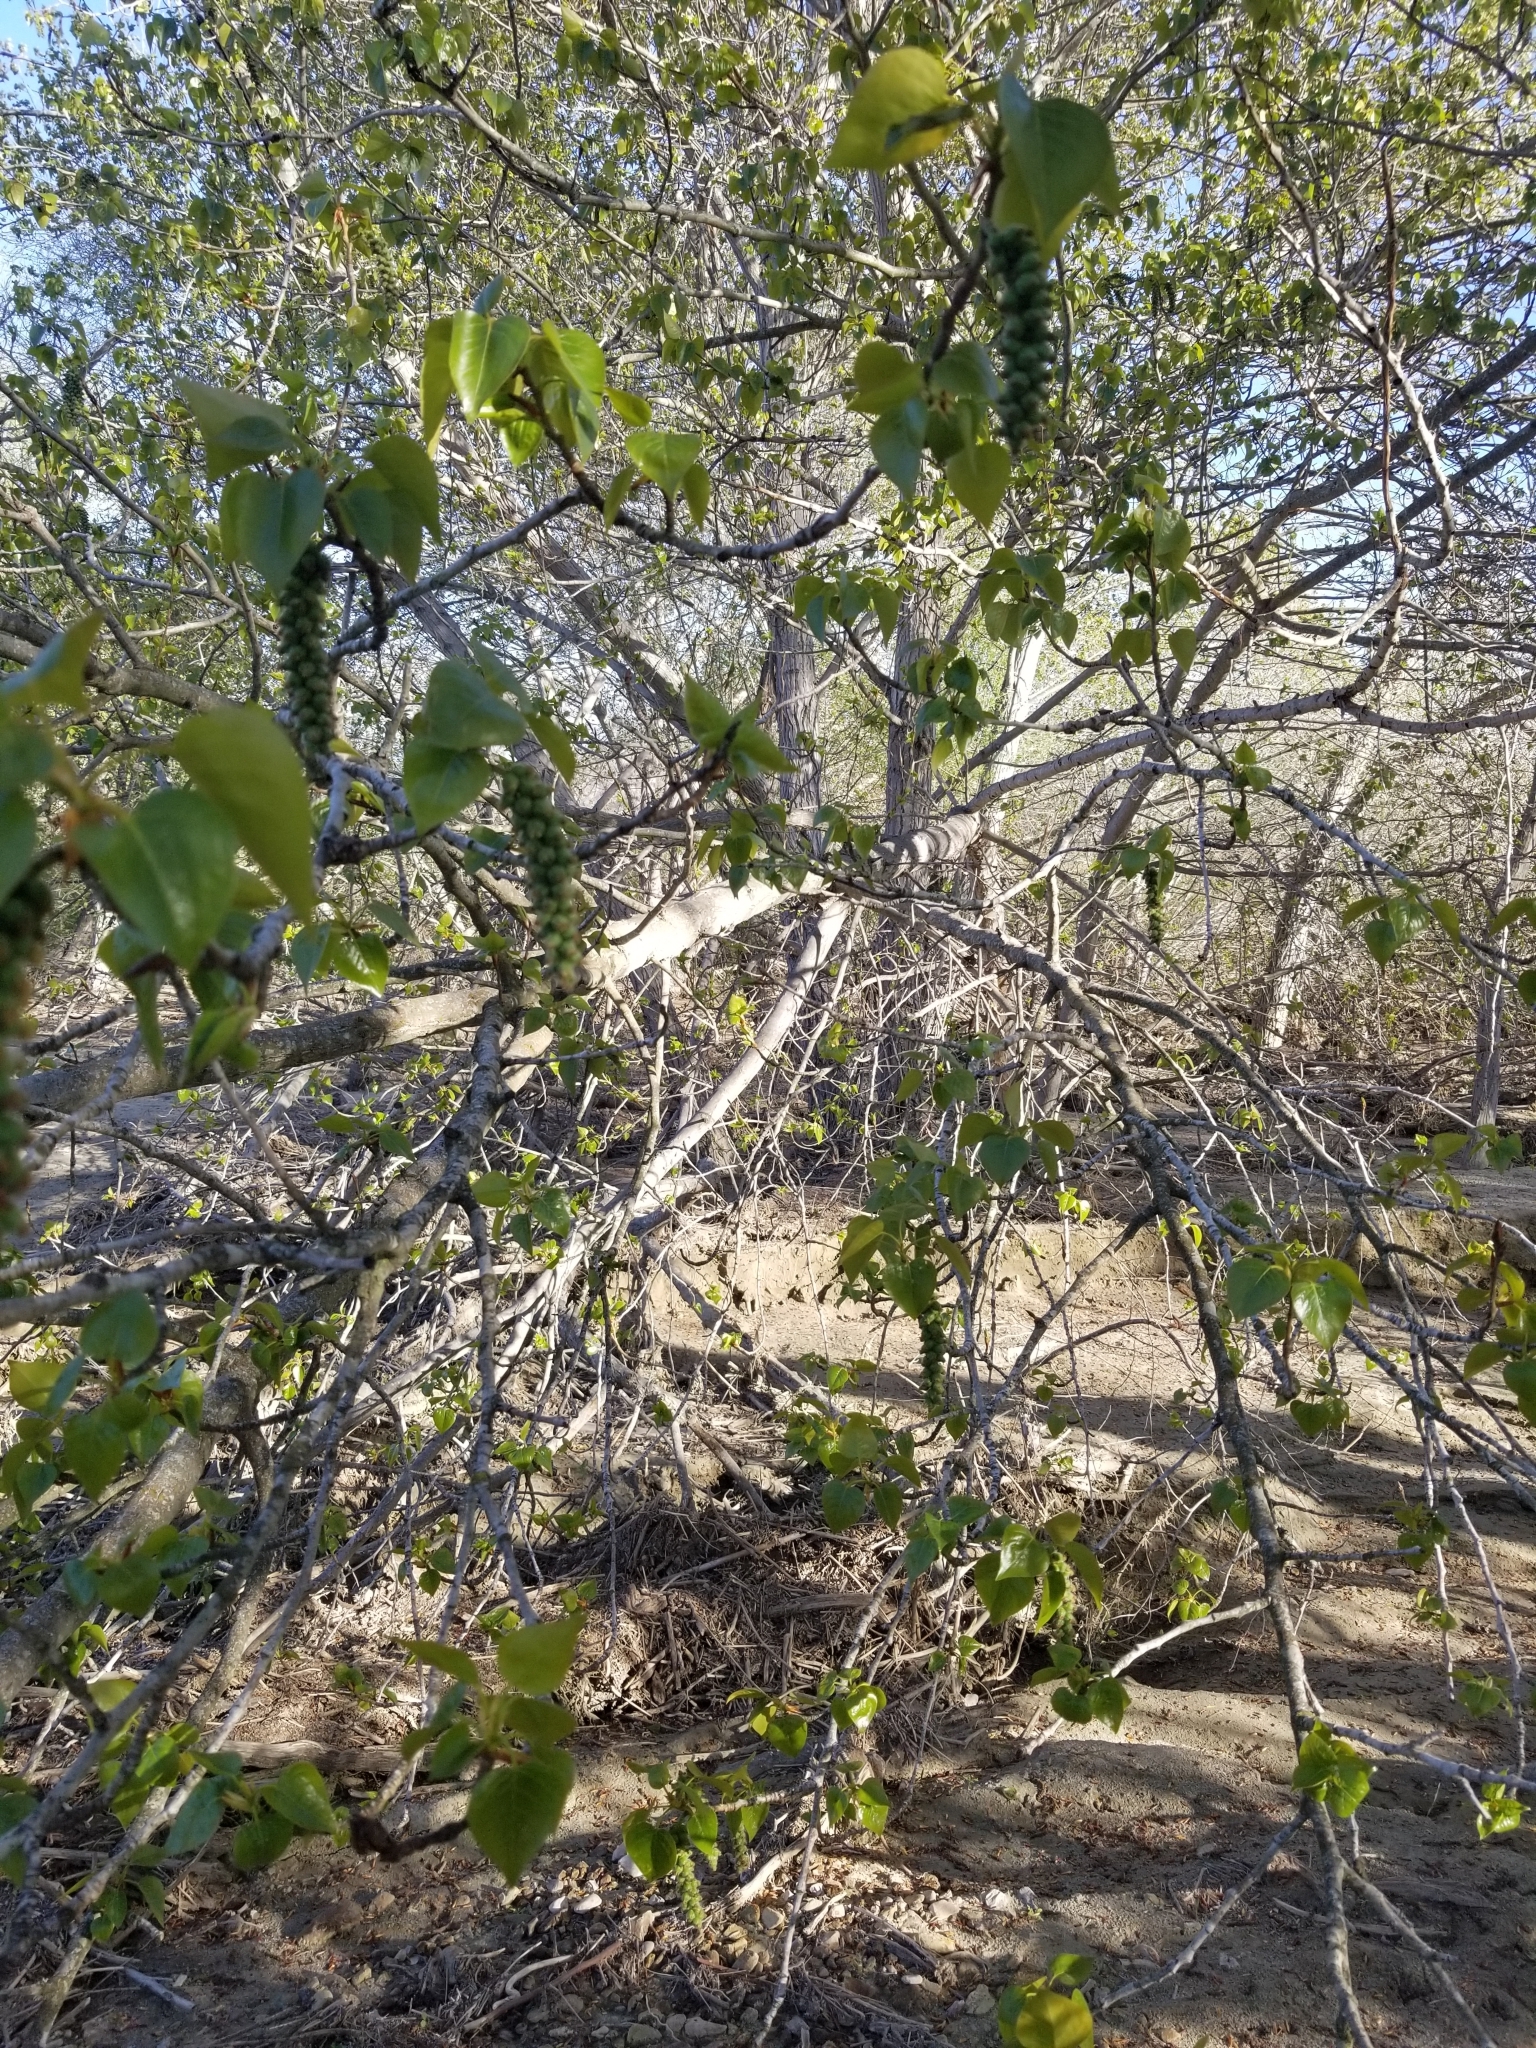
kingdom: Plantae
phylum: Tracheophyta
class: Magnoliopsida
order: Malpighiales
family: Salicaceae
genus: Populus
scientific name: Populus trichocarpa
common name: Black cottonwood
